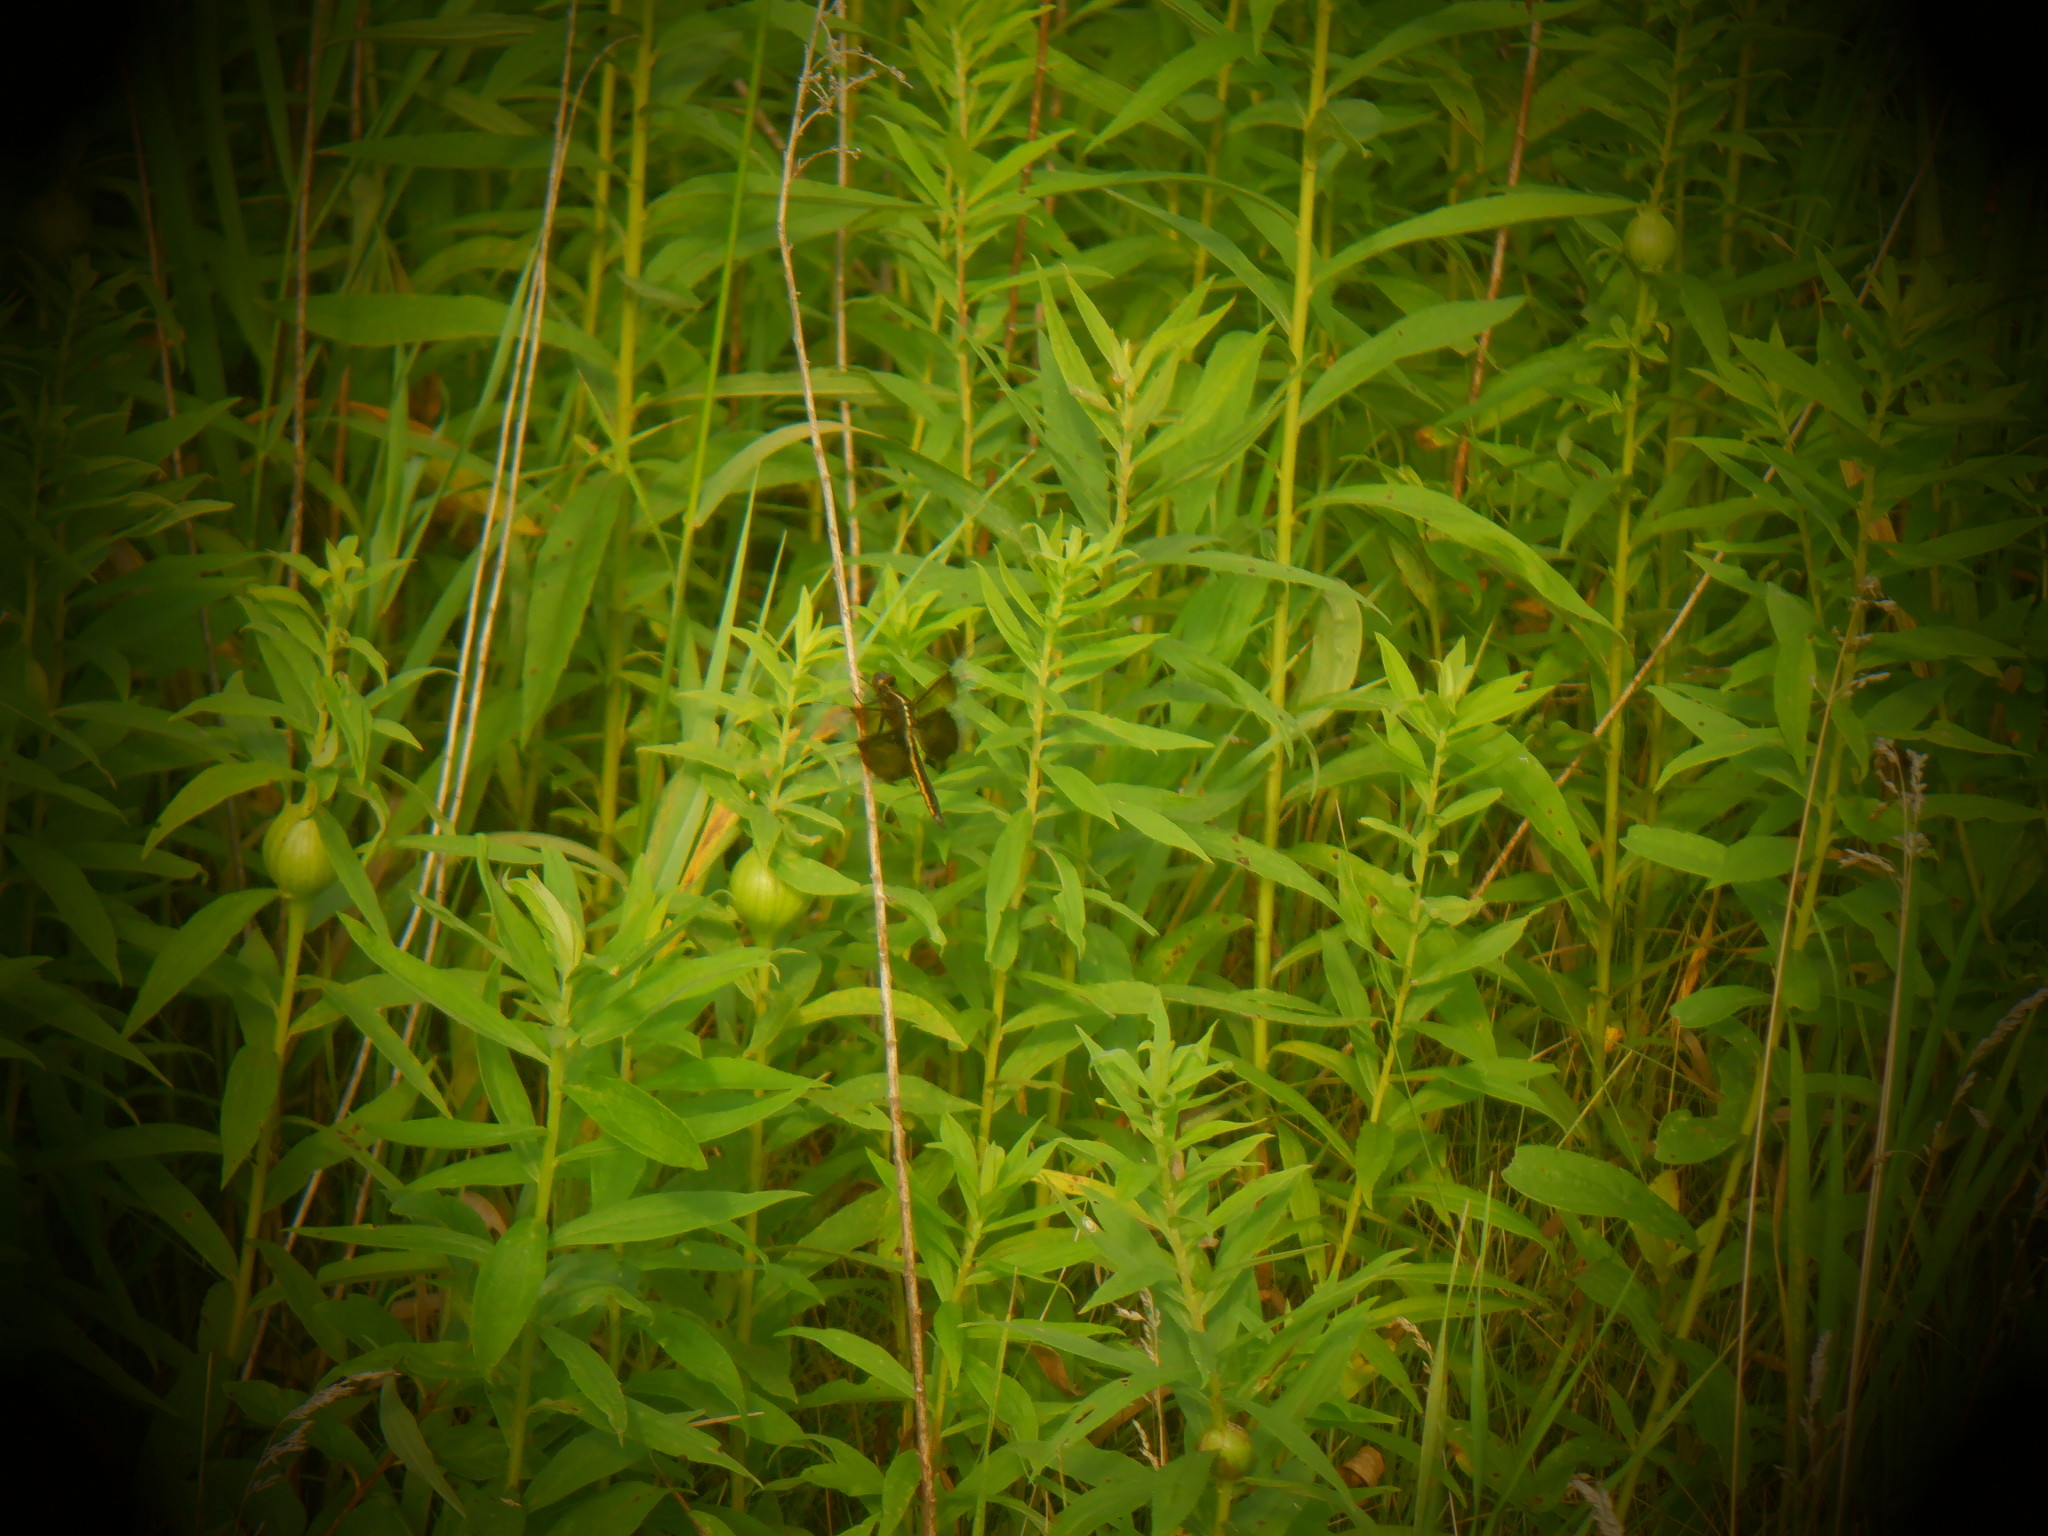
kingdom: Animalia
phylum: Arthropoda
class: Insecta
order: Odonata
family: Libellulidae
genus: Libellula
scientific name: Libellula luctuosa
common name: Widow skimmer
